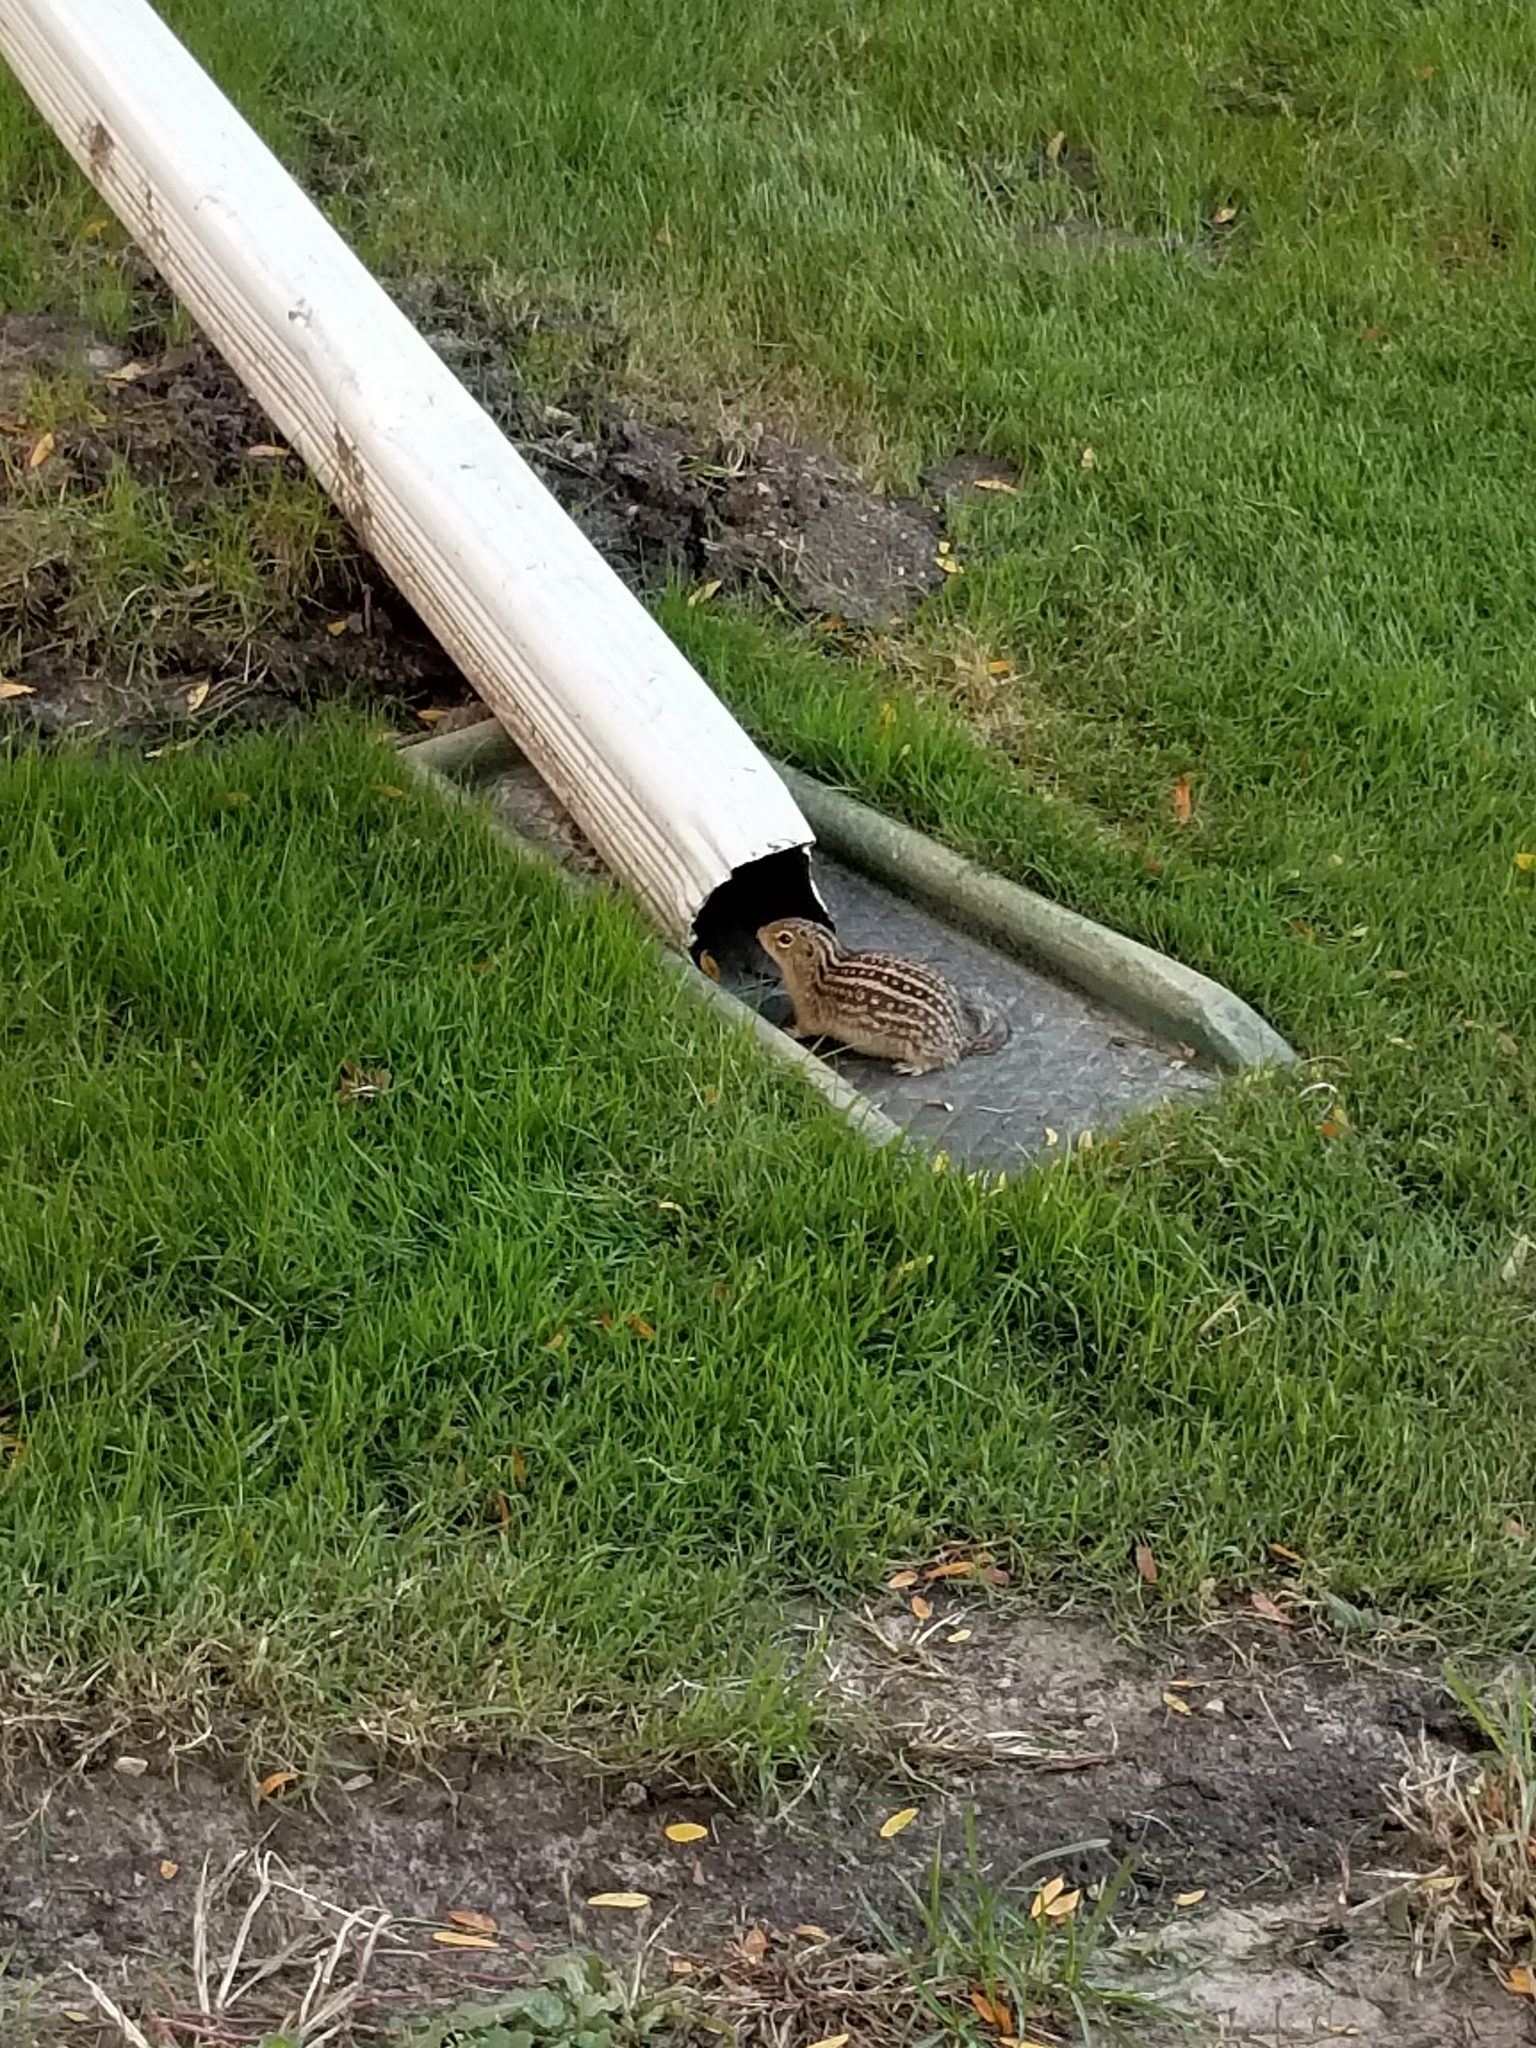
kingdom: Animalia
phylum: Chordata
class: Mammalia
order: Rodentia
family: Sciuridae
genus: Ictidomys
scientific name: Ictidomys tridecemlineatus
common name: Thirteen-lined ground squirrel
